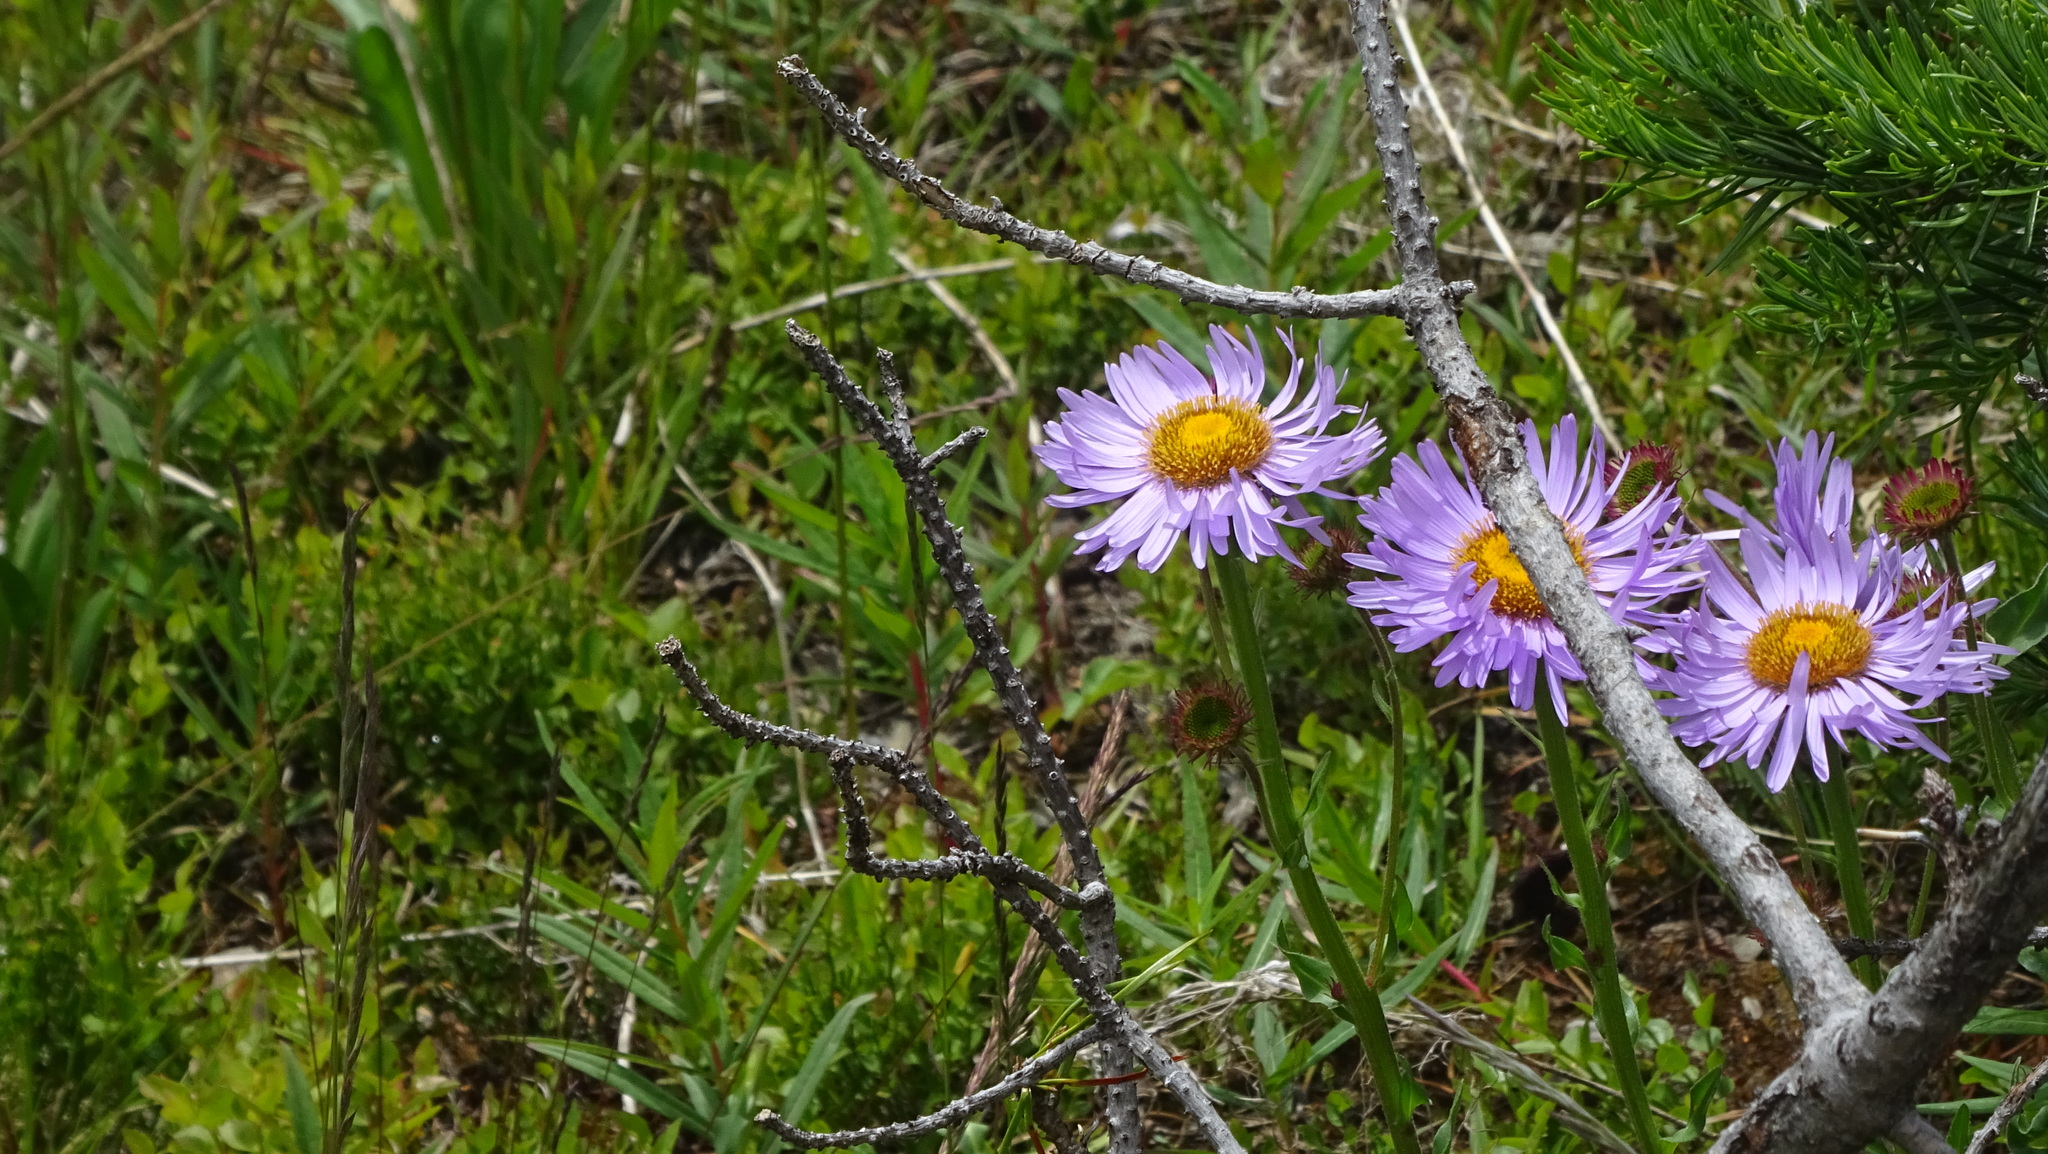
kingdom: Plantae
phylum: Tracheophyta
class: Magnoliopsida
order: Asterales
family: Asteraceae
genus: Erigeron
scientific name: Erigeron glacialis
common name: Subalpine fleabane
